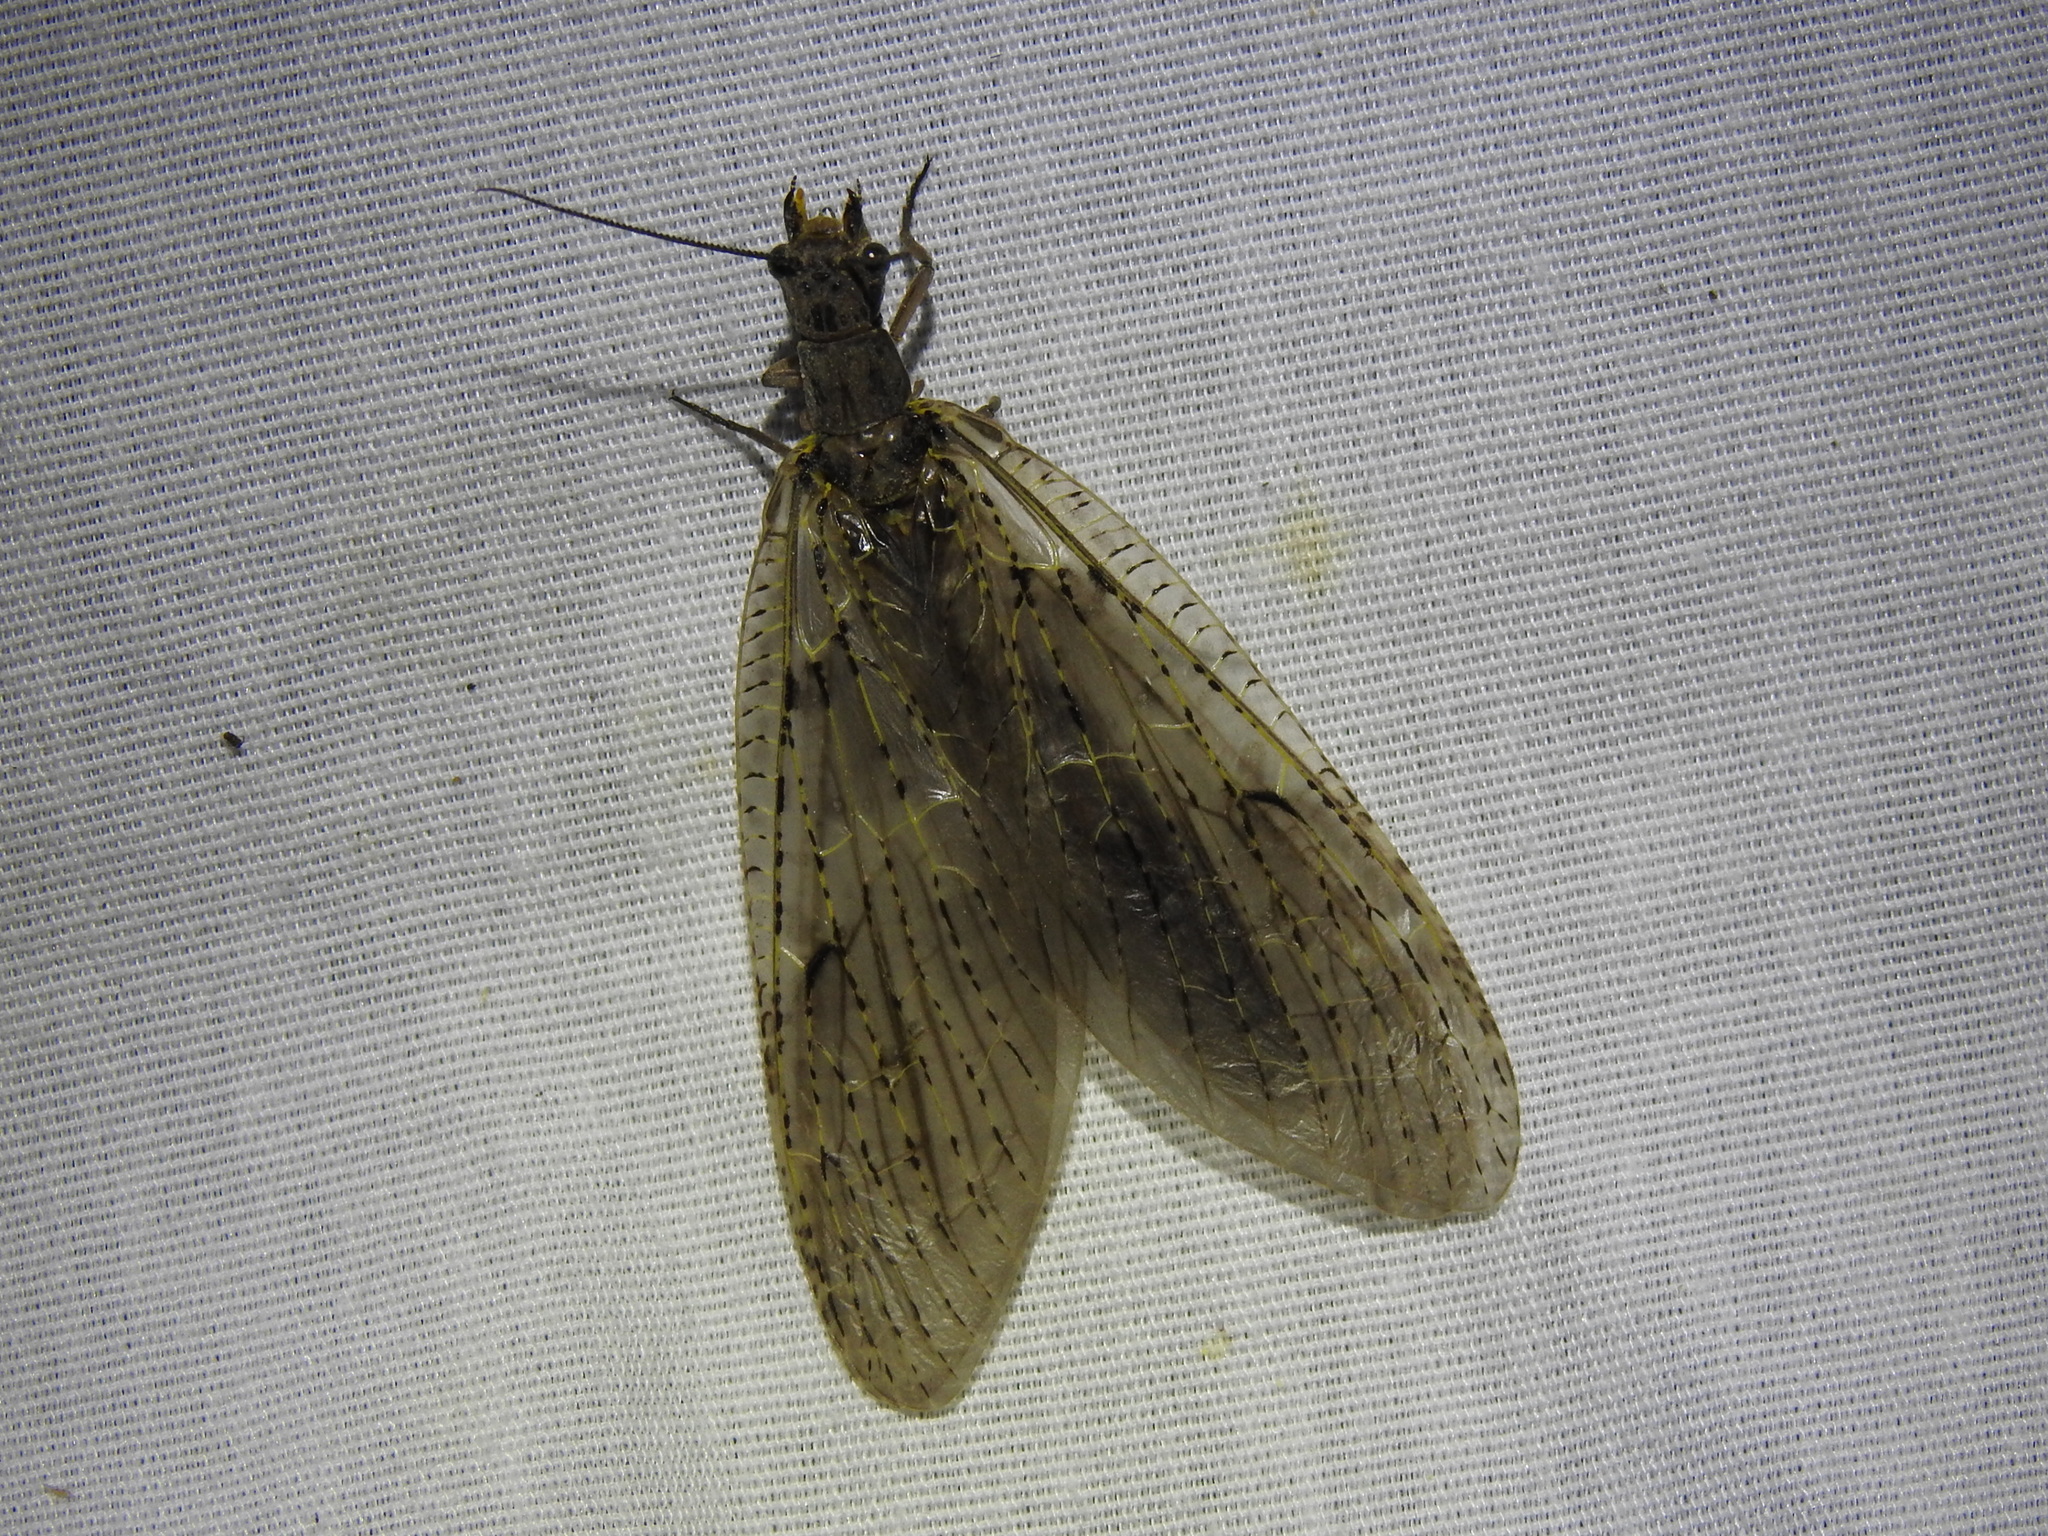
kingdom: Animalia
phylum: Arthropoda
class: Insecta
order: Megaloptera
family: Corydalidae
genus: Chauliodes
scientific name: Chauliodes rastricornis
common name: Spring fishfly
